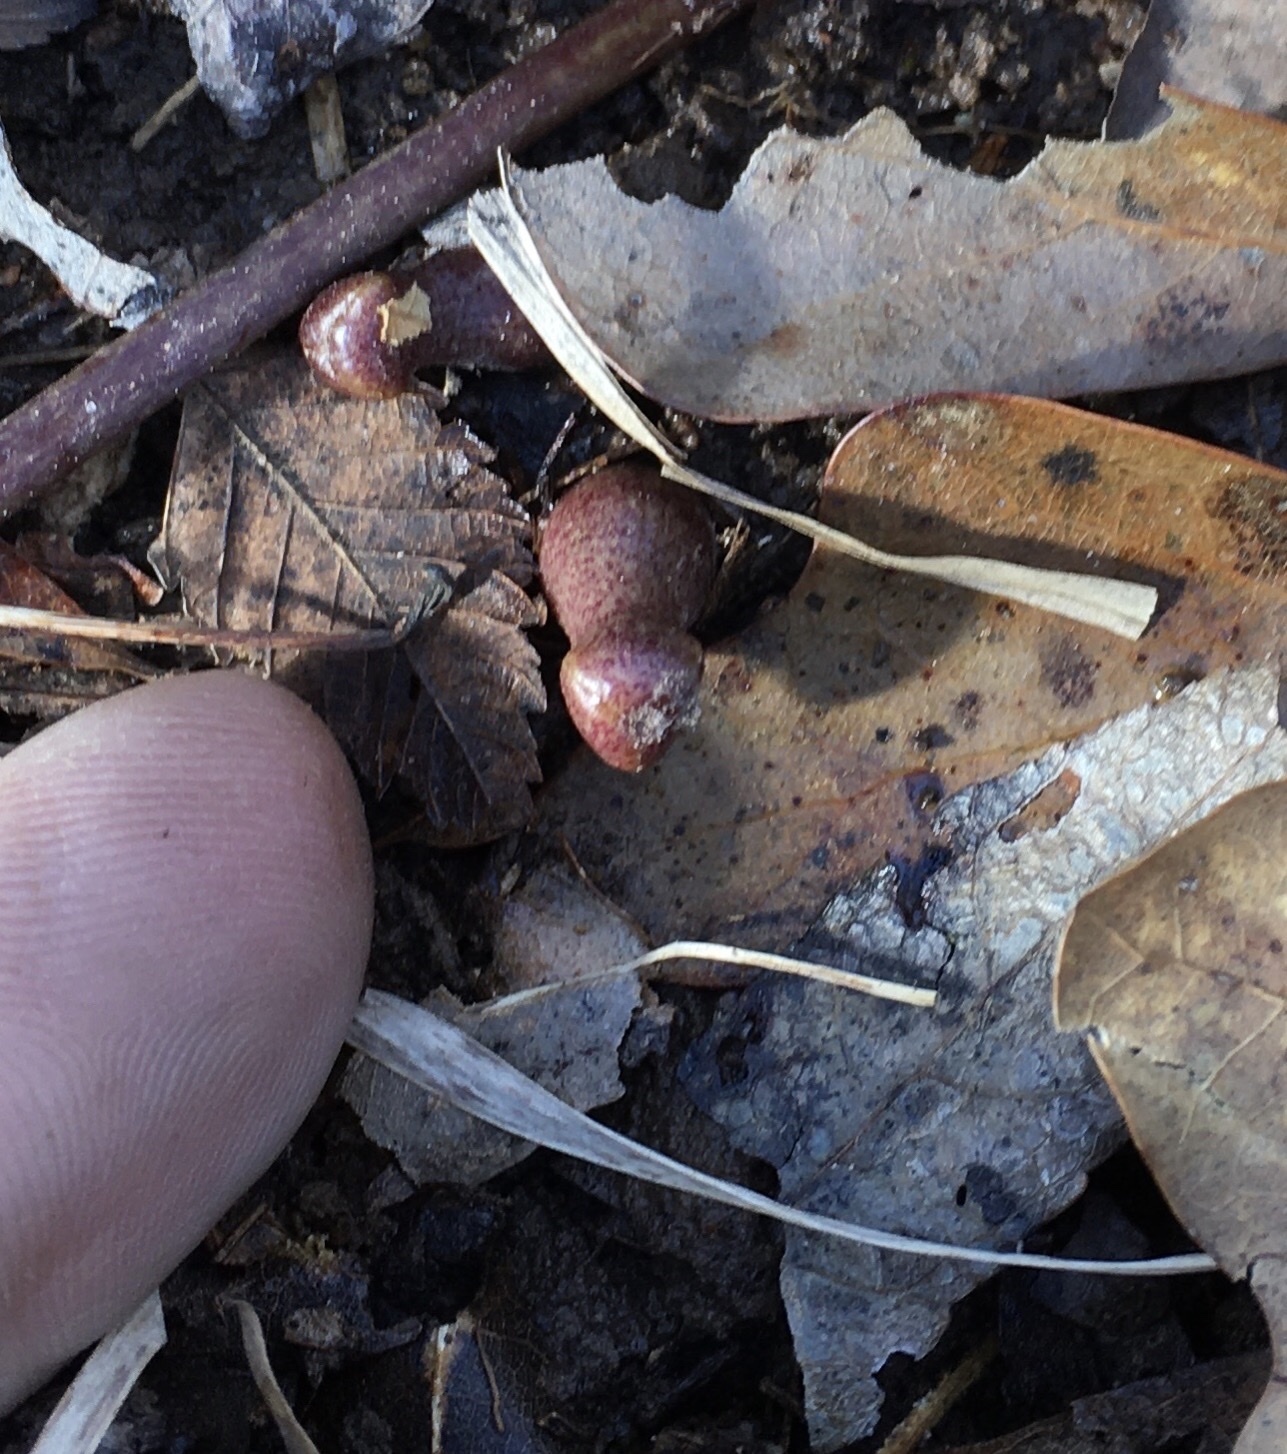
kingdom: Plantae
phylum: Tracheophyta
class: Magnoliopsida
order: Piperales
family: Aristolochiaceae
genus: Hexastylis
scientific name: Hexastylis arifolia
